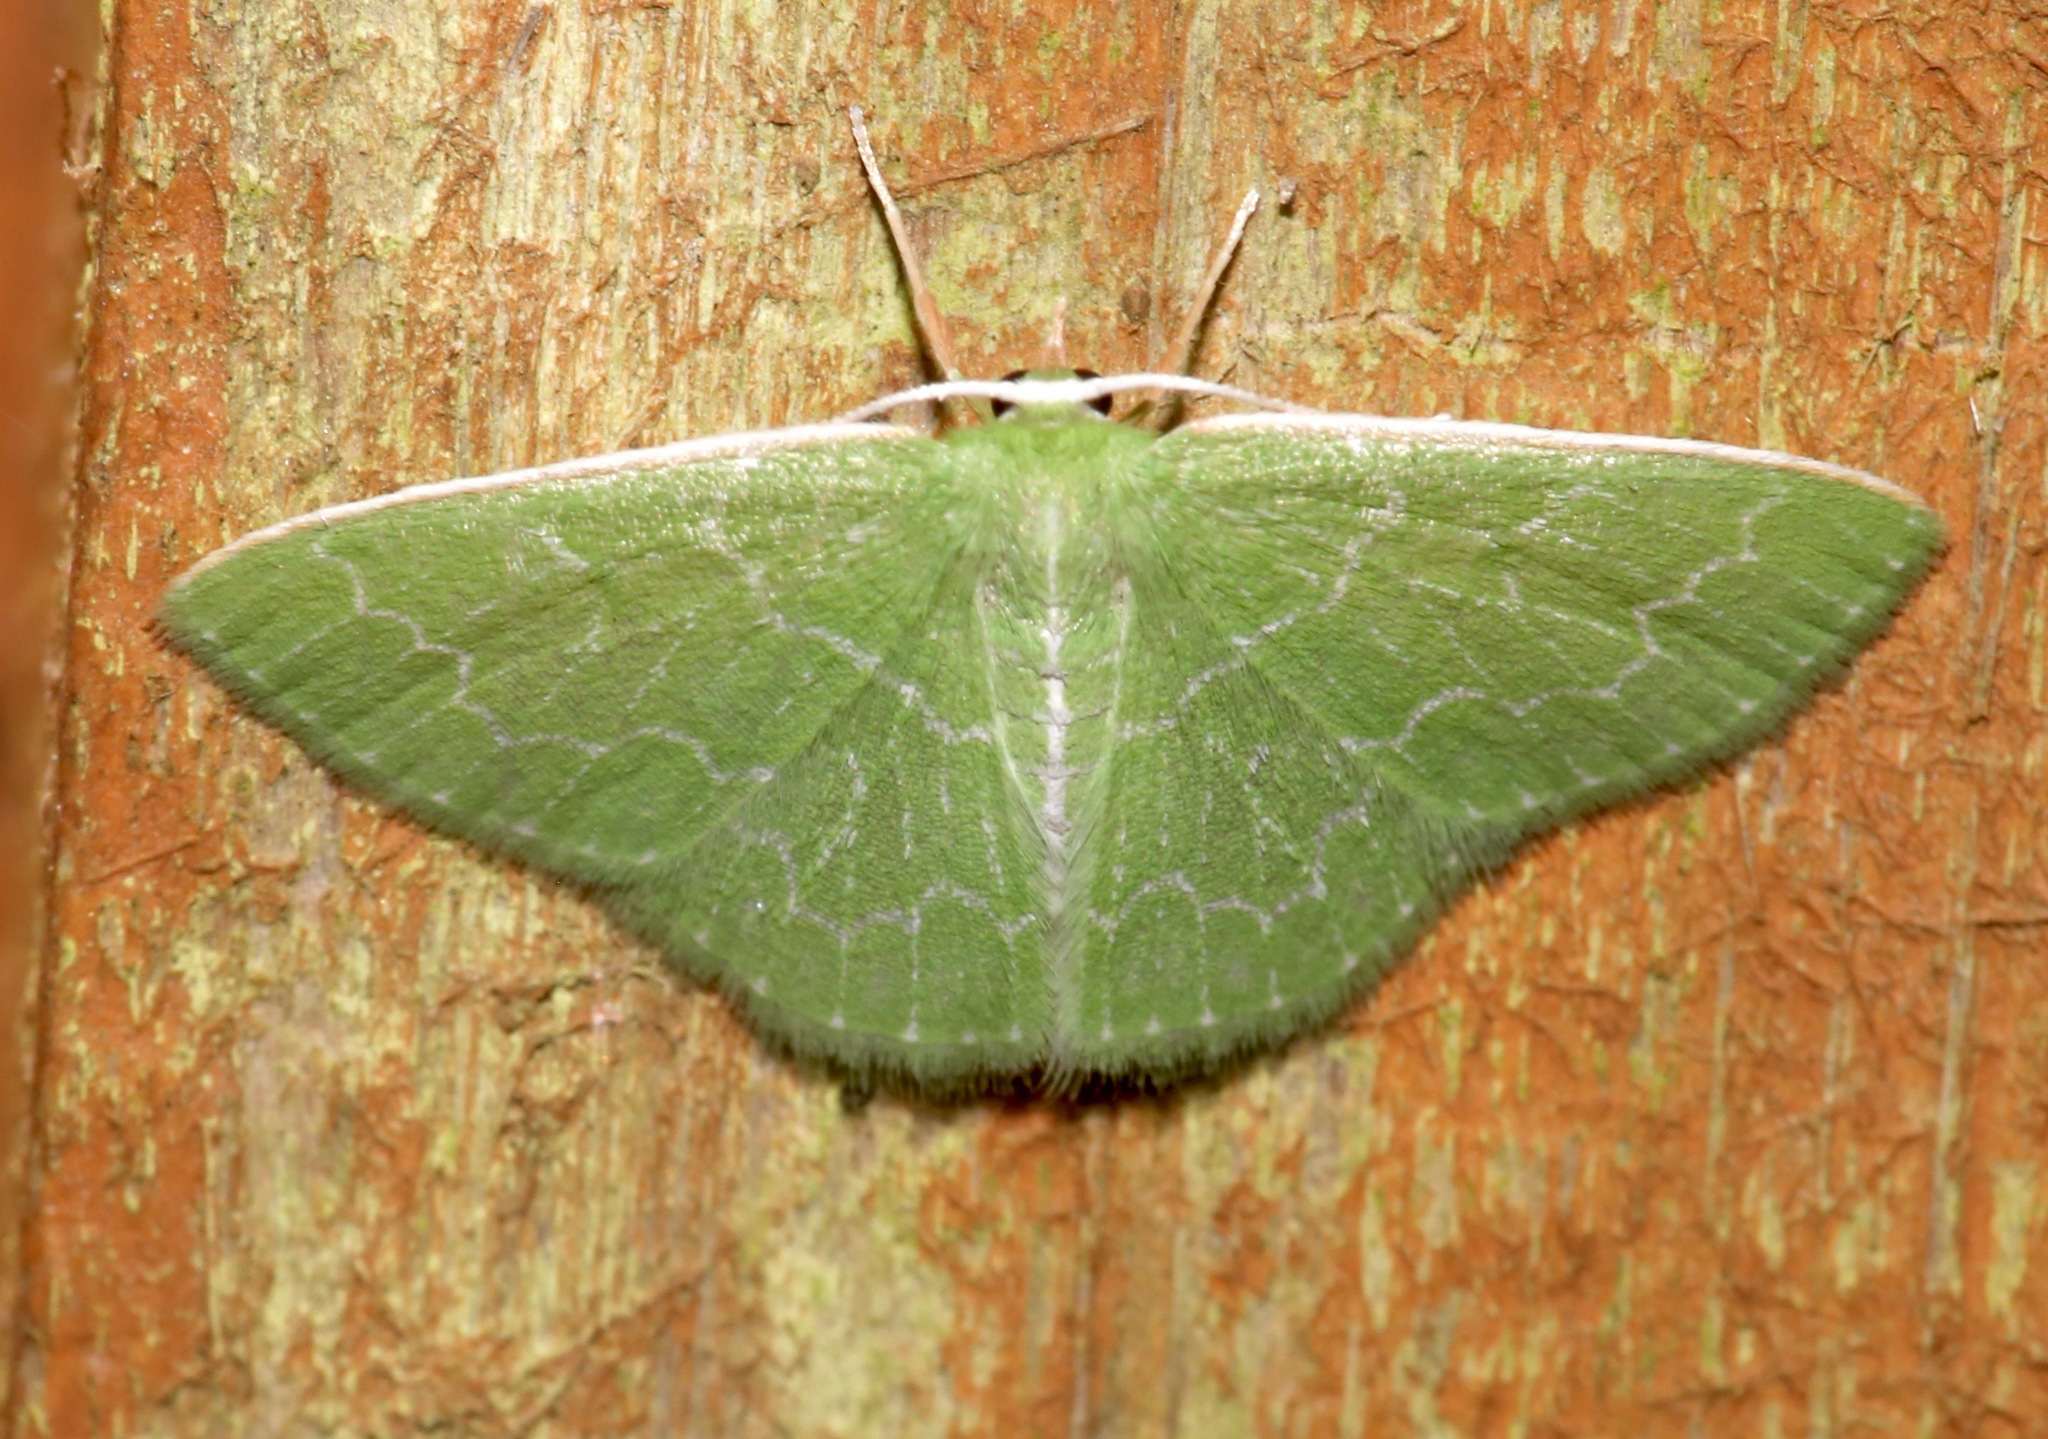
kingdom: Animalia
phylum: Arthropoda
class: Insecta
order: Lepidoptera
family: Geometridae
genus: Synchlora
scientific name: Synchlora frondaria
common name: Southern emerald
